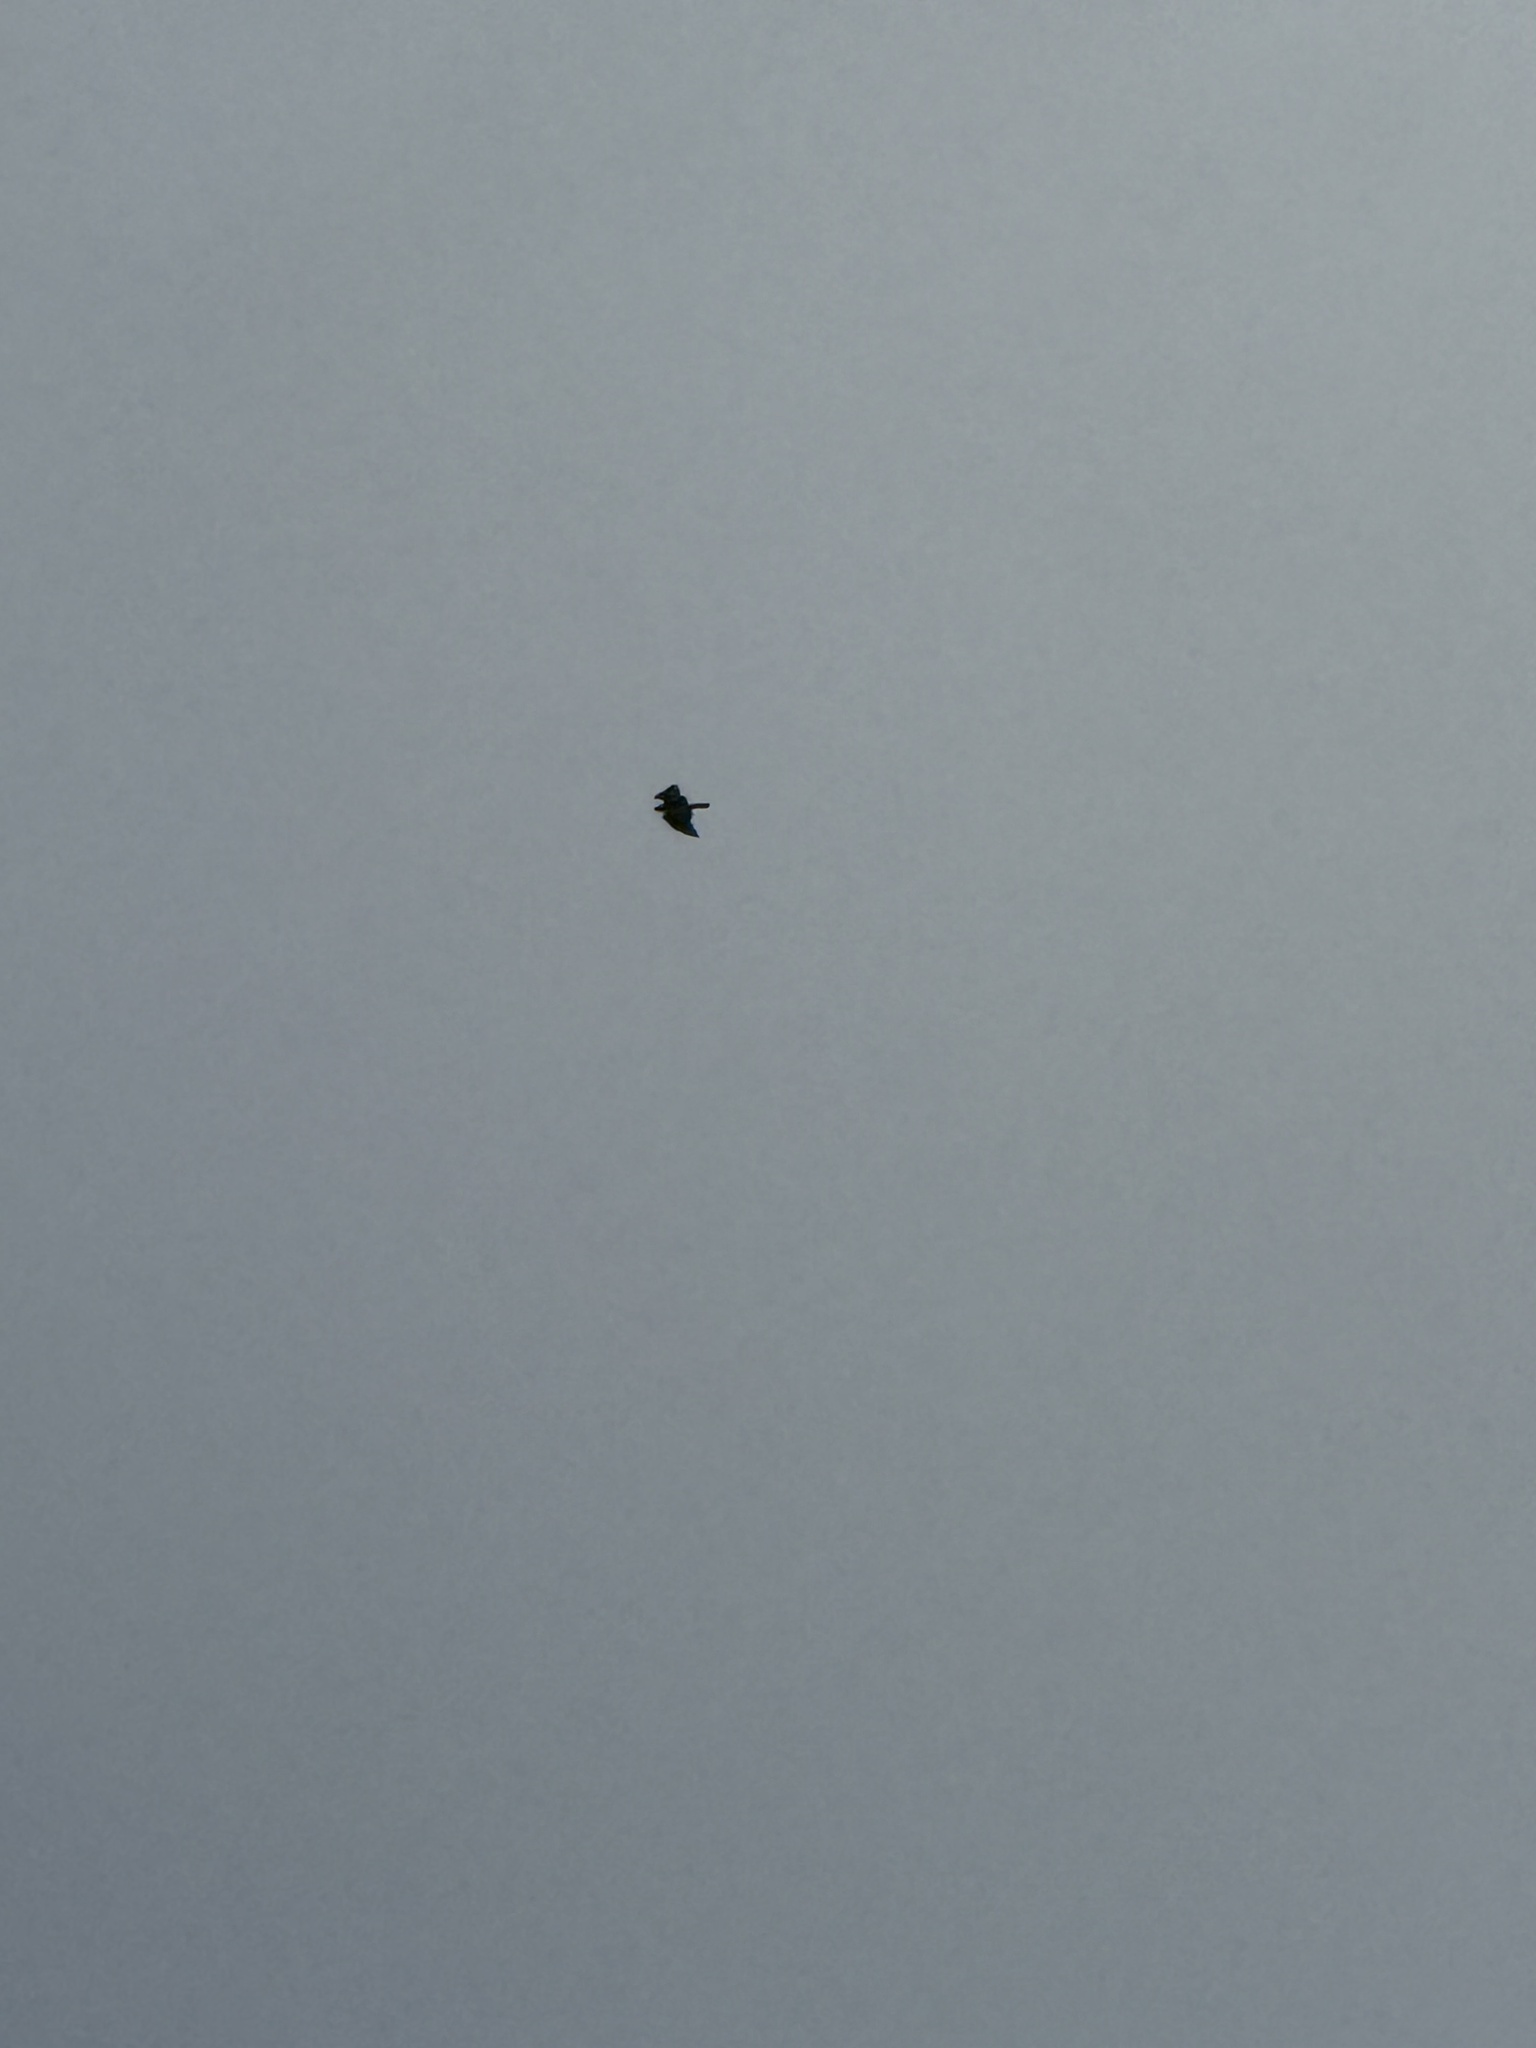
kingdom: Animalia
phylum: Chordata
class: Aves
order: Accipitriformes
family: Accipitridae
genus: Buteo
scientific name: Buteo jamaicensis
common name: Red-tailed hawk
